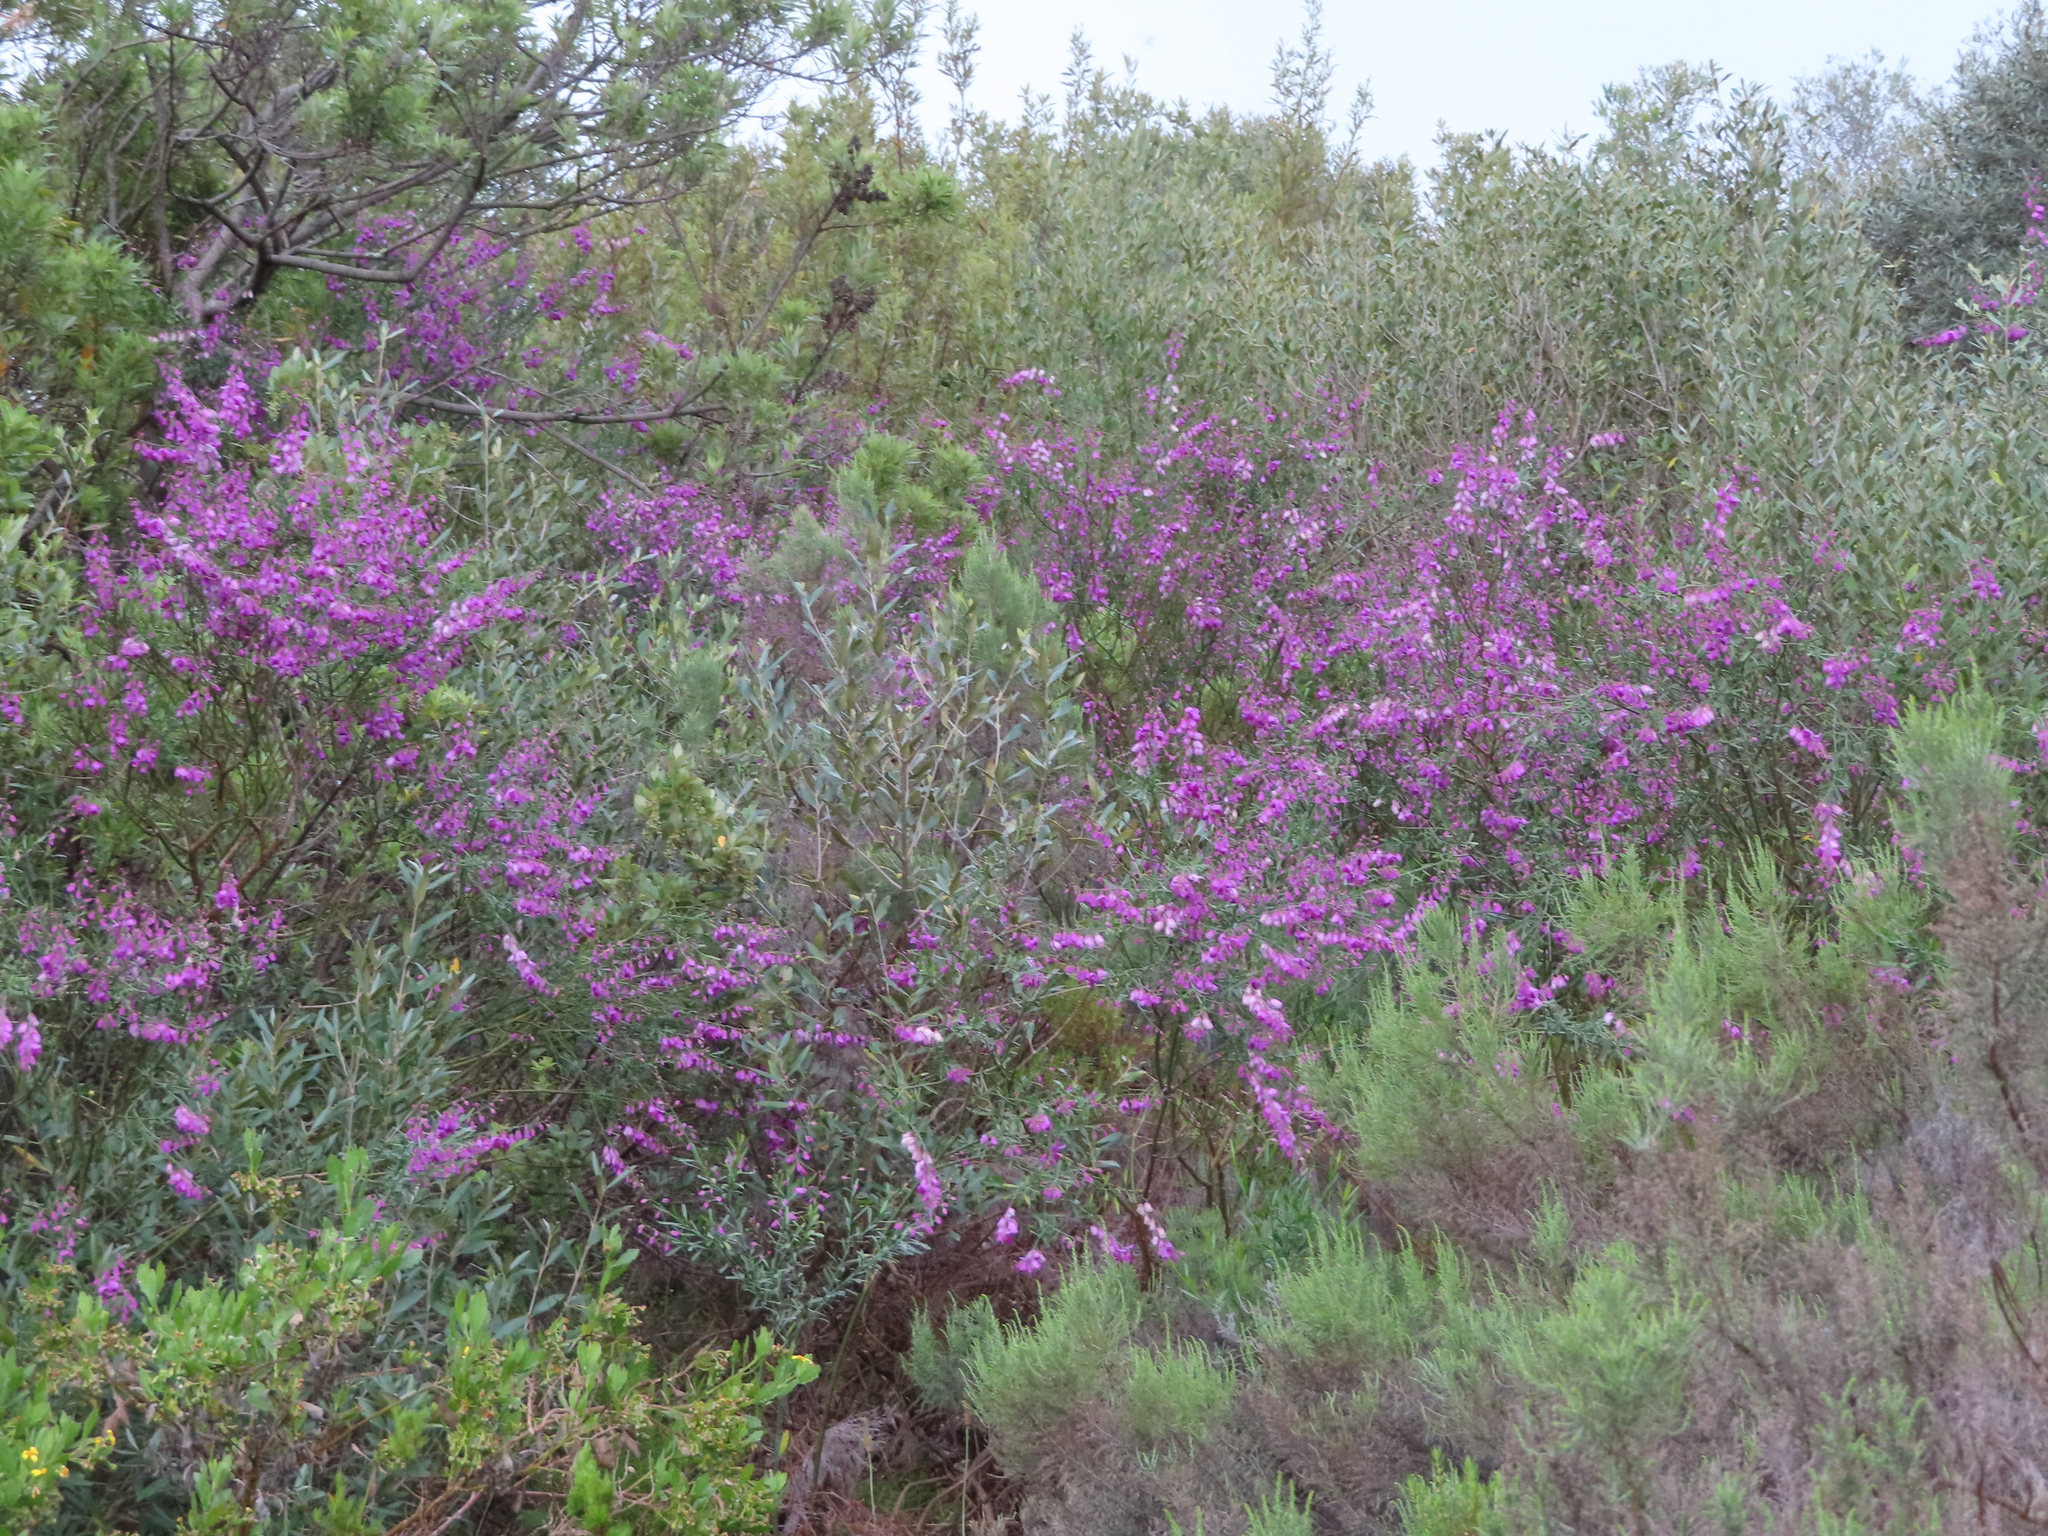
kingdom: Plantae
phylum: Tracheophyta
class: Magnoliopsida
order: Fabales
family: Polygalaceae
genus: Polygala
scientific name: Polygala virgata
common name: Milkwort
